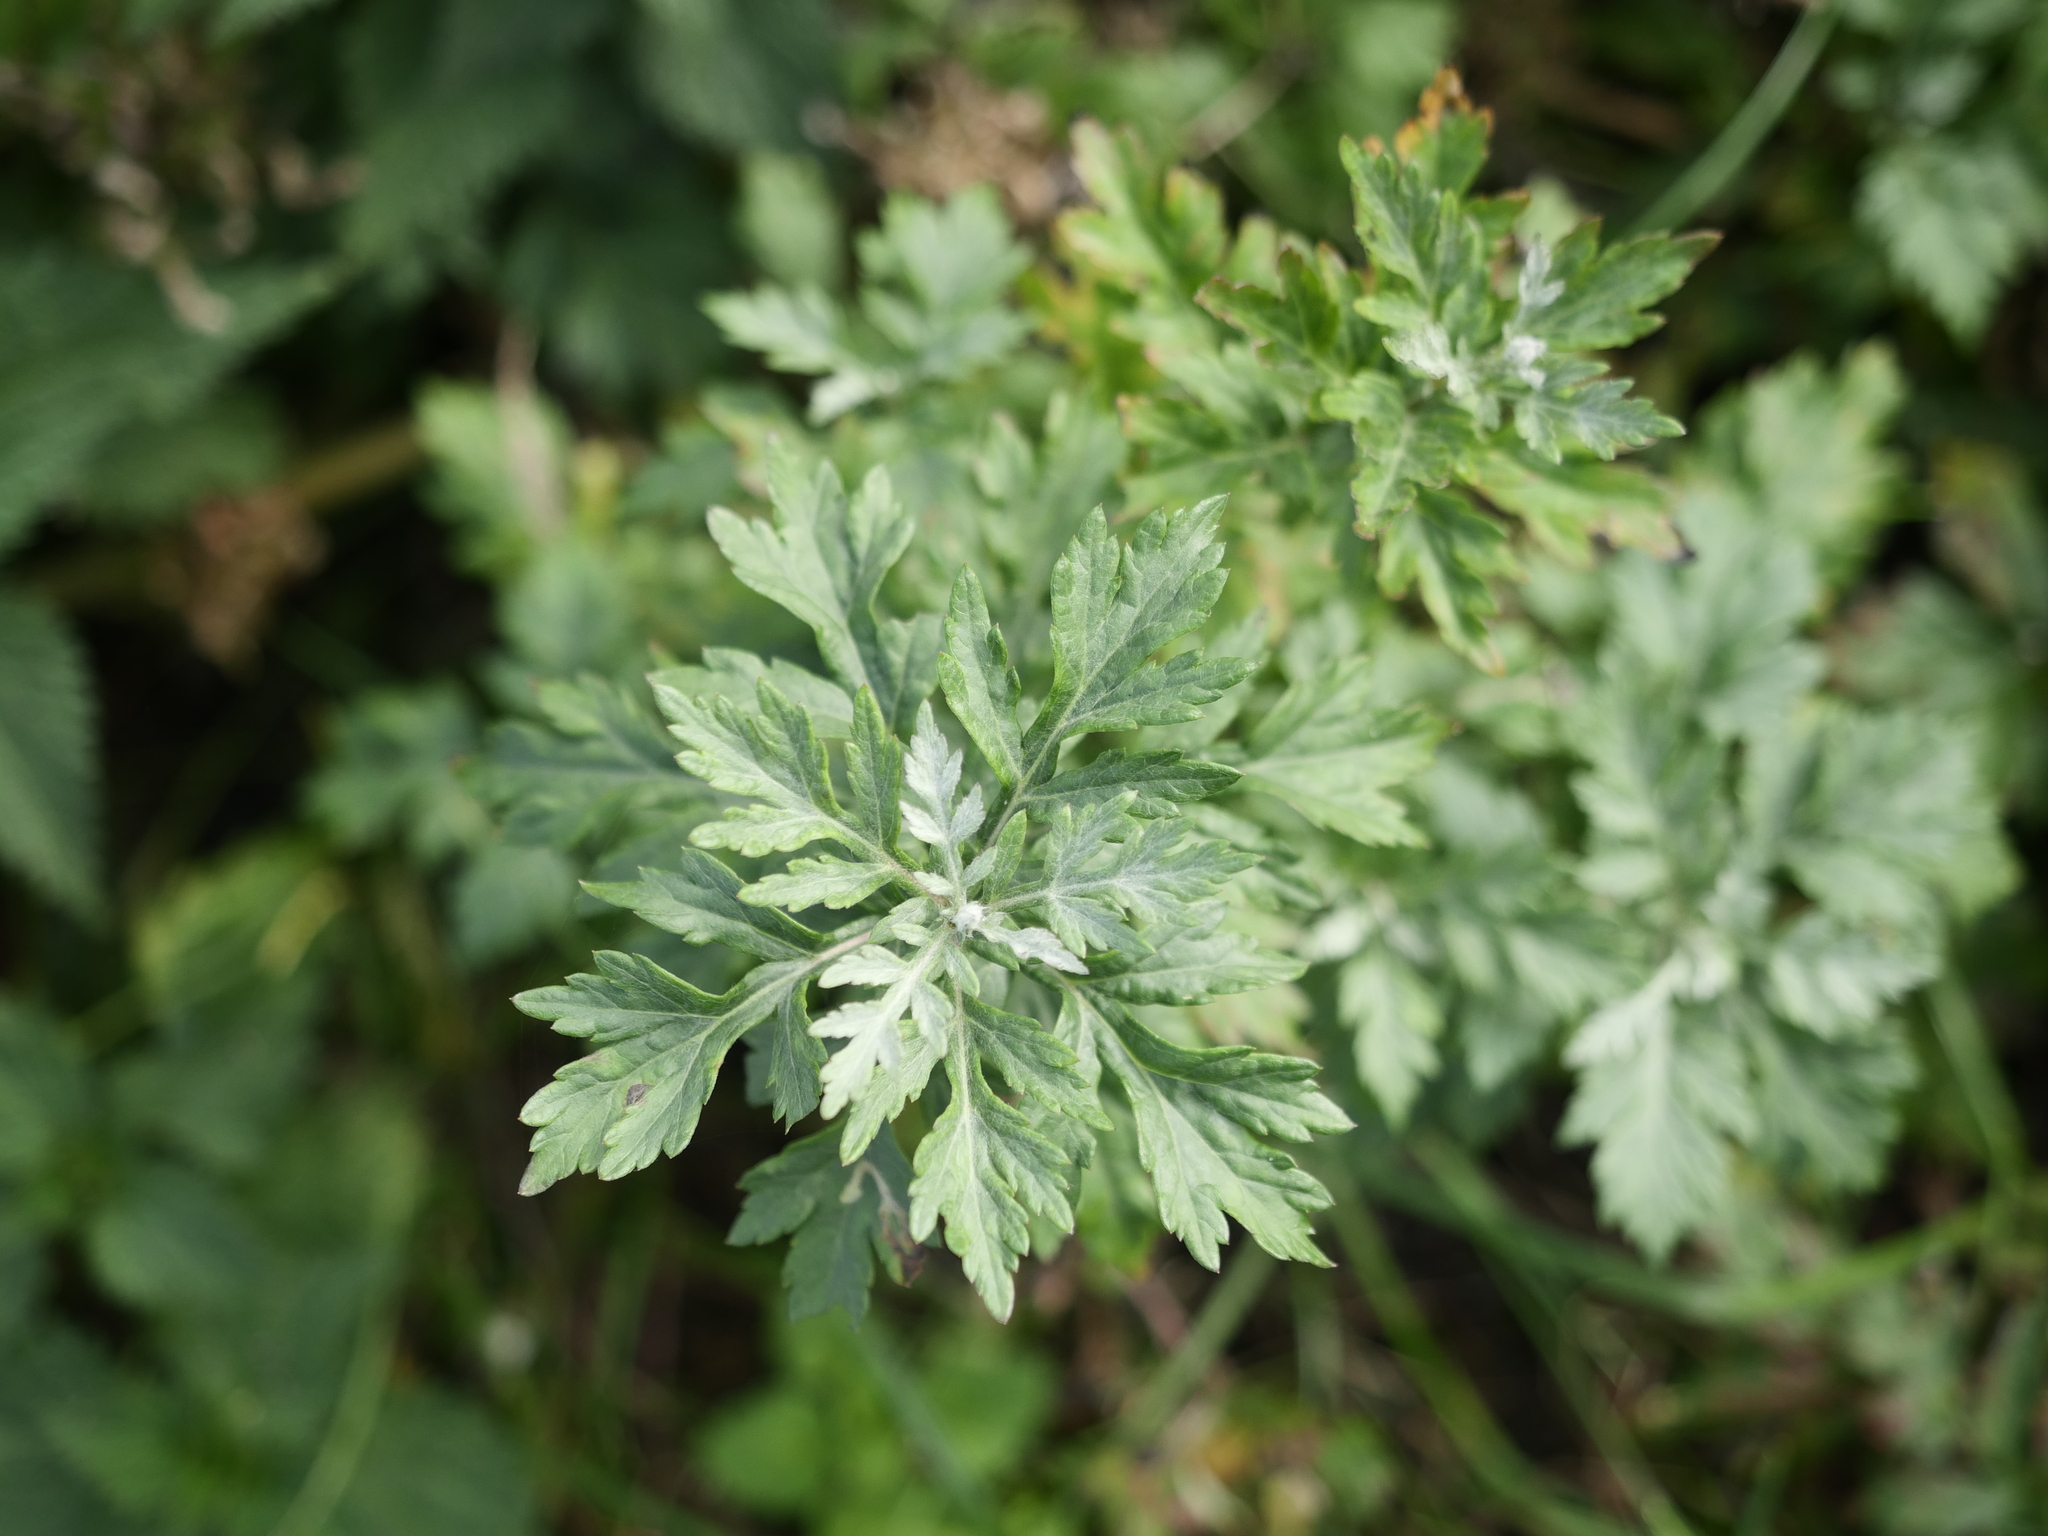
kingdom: Plantae
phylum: Tracheophyta
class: Magnoliopsida
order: Asterales
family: Asteraceae
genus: Artemisia
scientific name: Artemisia vulgaris
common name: Mugwort
